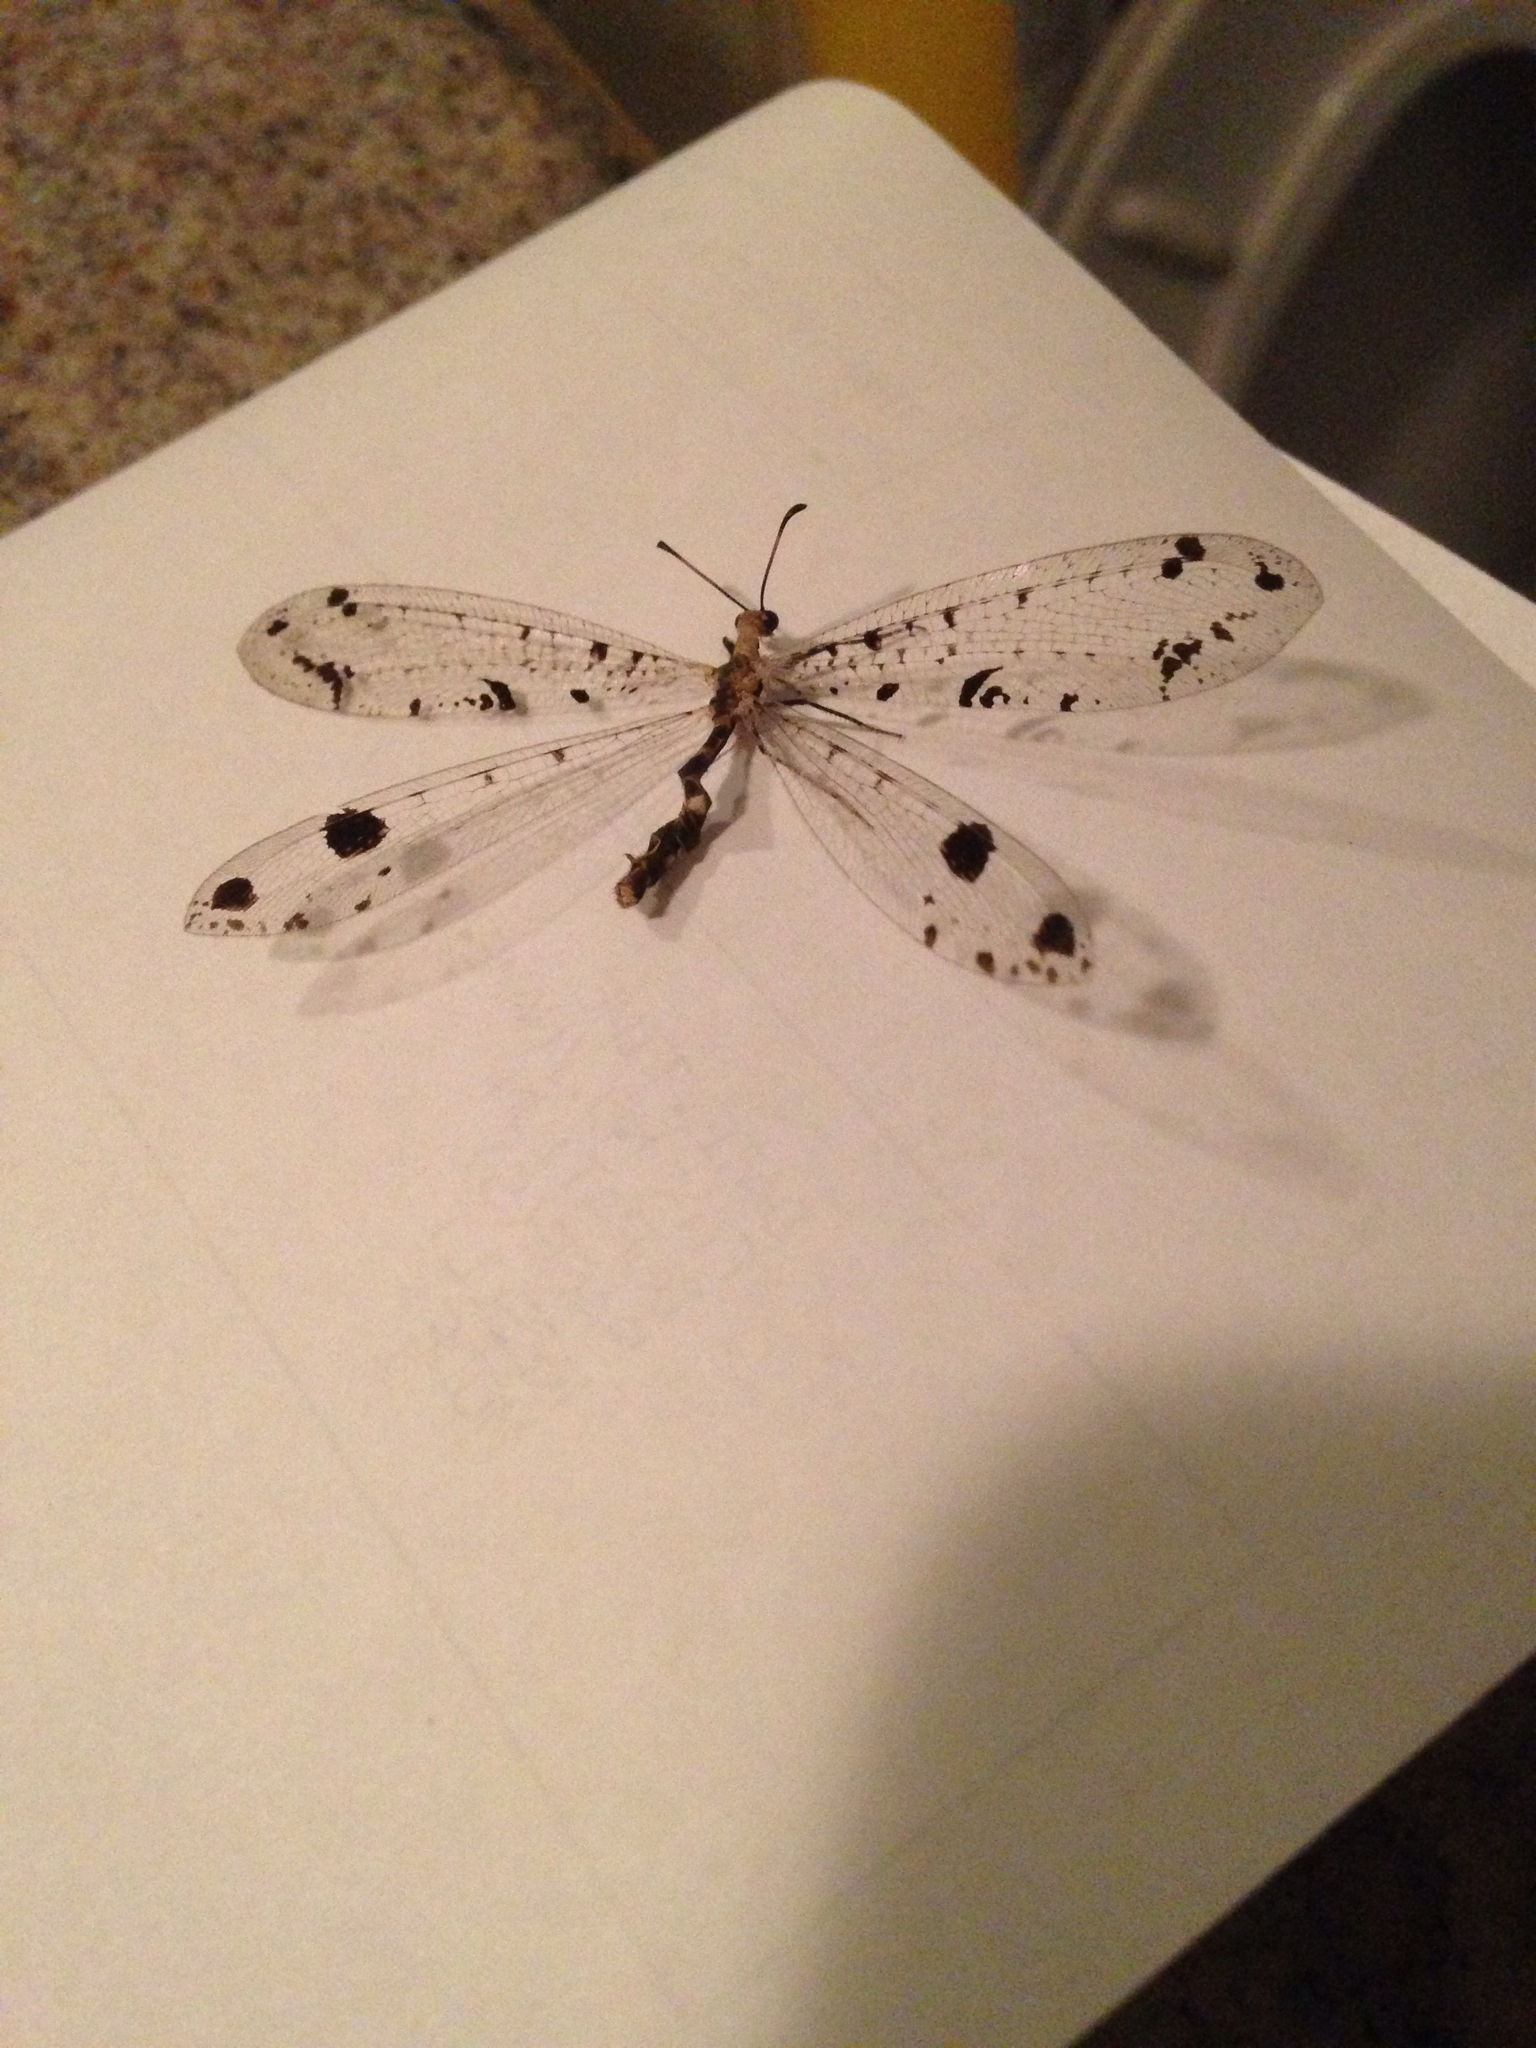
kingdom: Animalia
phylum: Arthropoda
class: Insecta
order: Neuroptera
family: Myrmeleontidae
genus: Dendroleon
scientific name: Dendroleon obsoletus
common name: Eastern spotted-winged antlion
